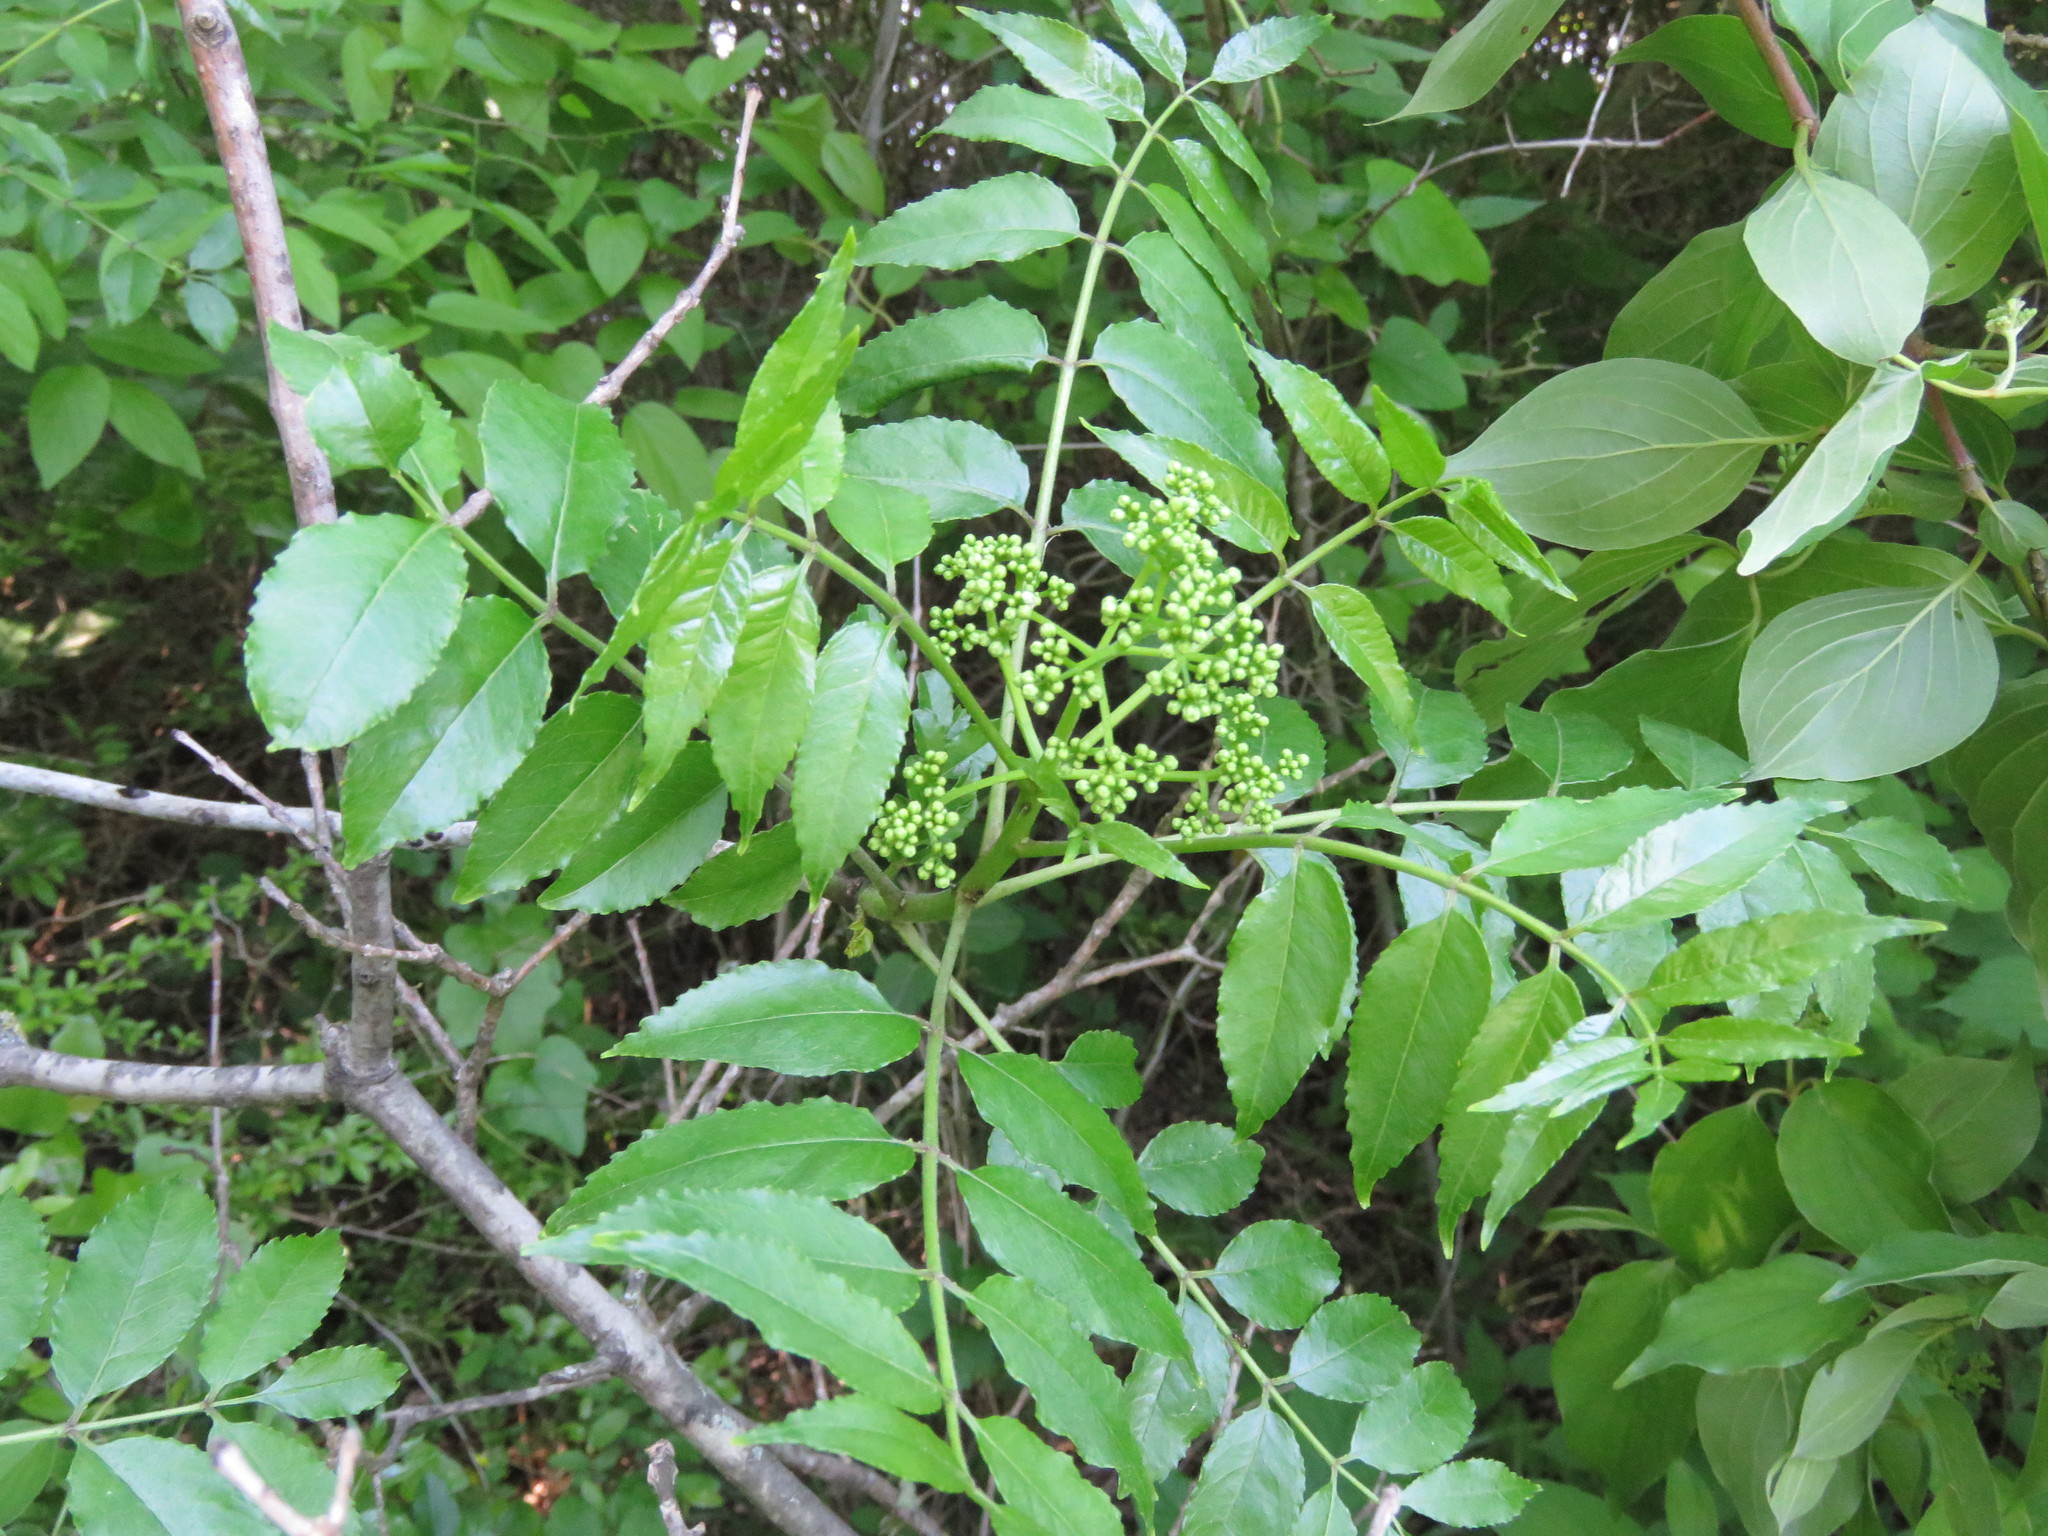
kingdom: Plantae
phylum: Tracheophyta
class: Magnoliopsida
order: Sapindales
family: Rutaceae
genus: Zanthoxylum
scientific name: Zanthoxylum clava-herculis
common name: Hercules'-club
